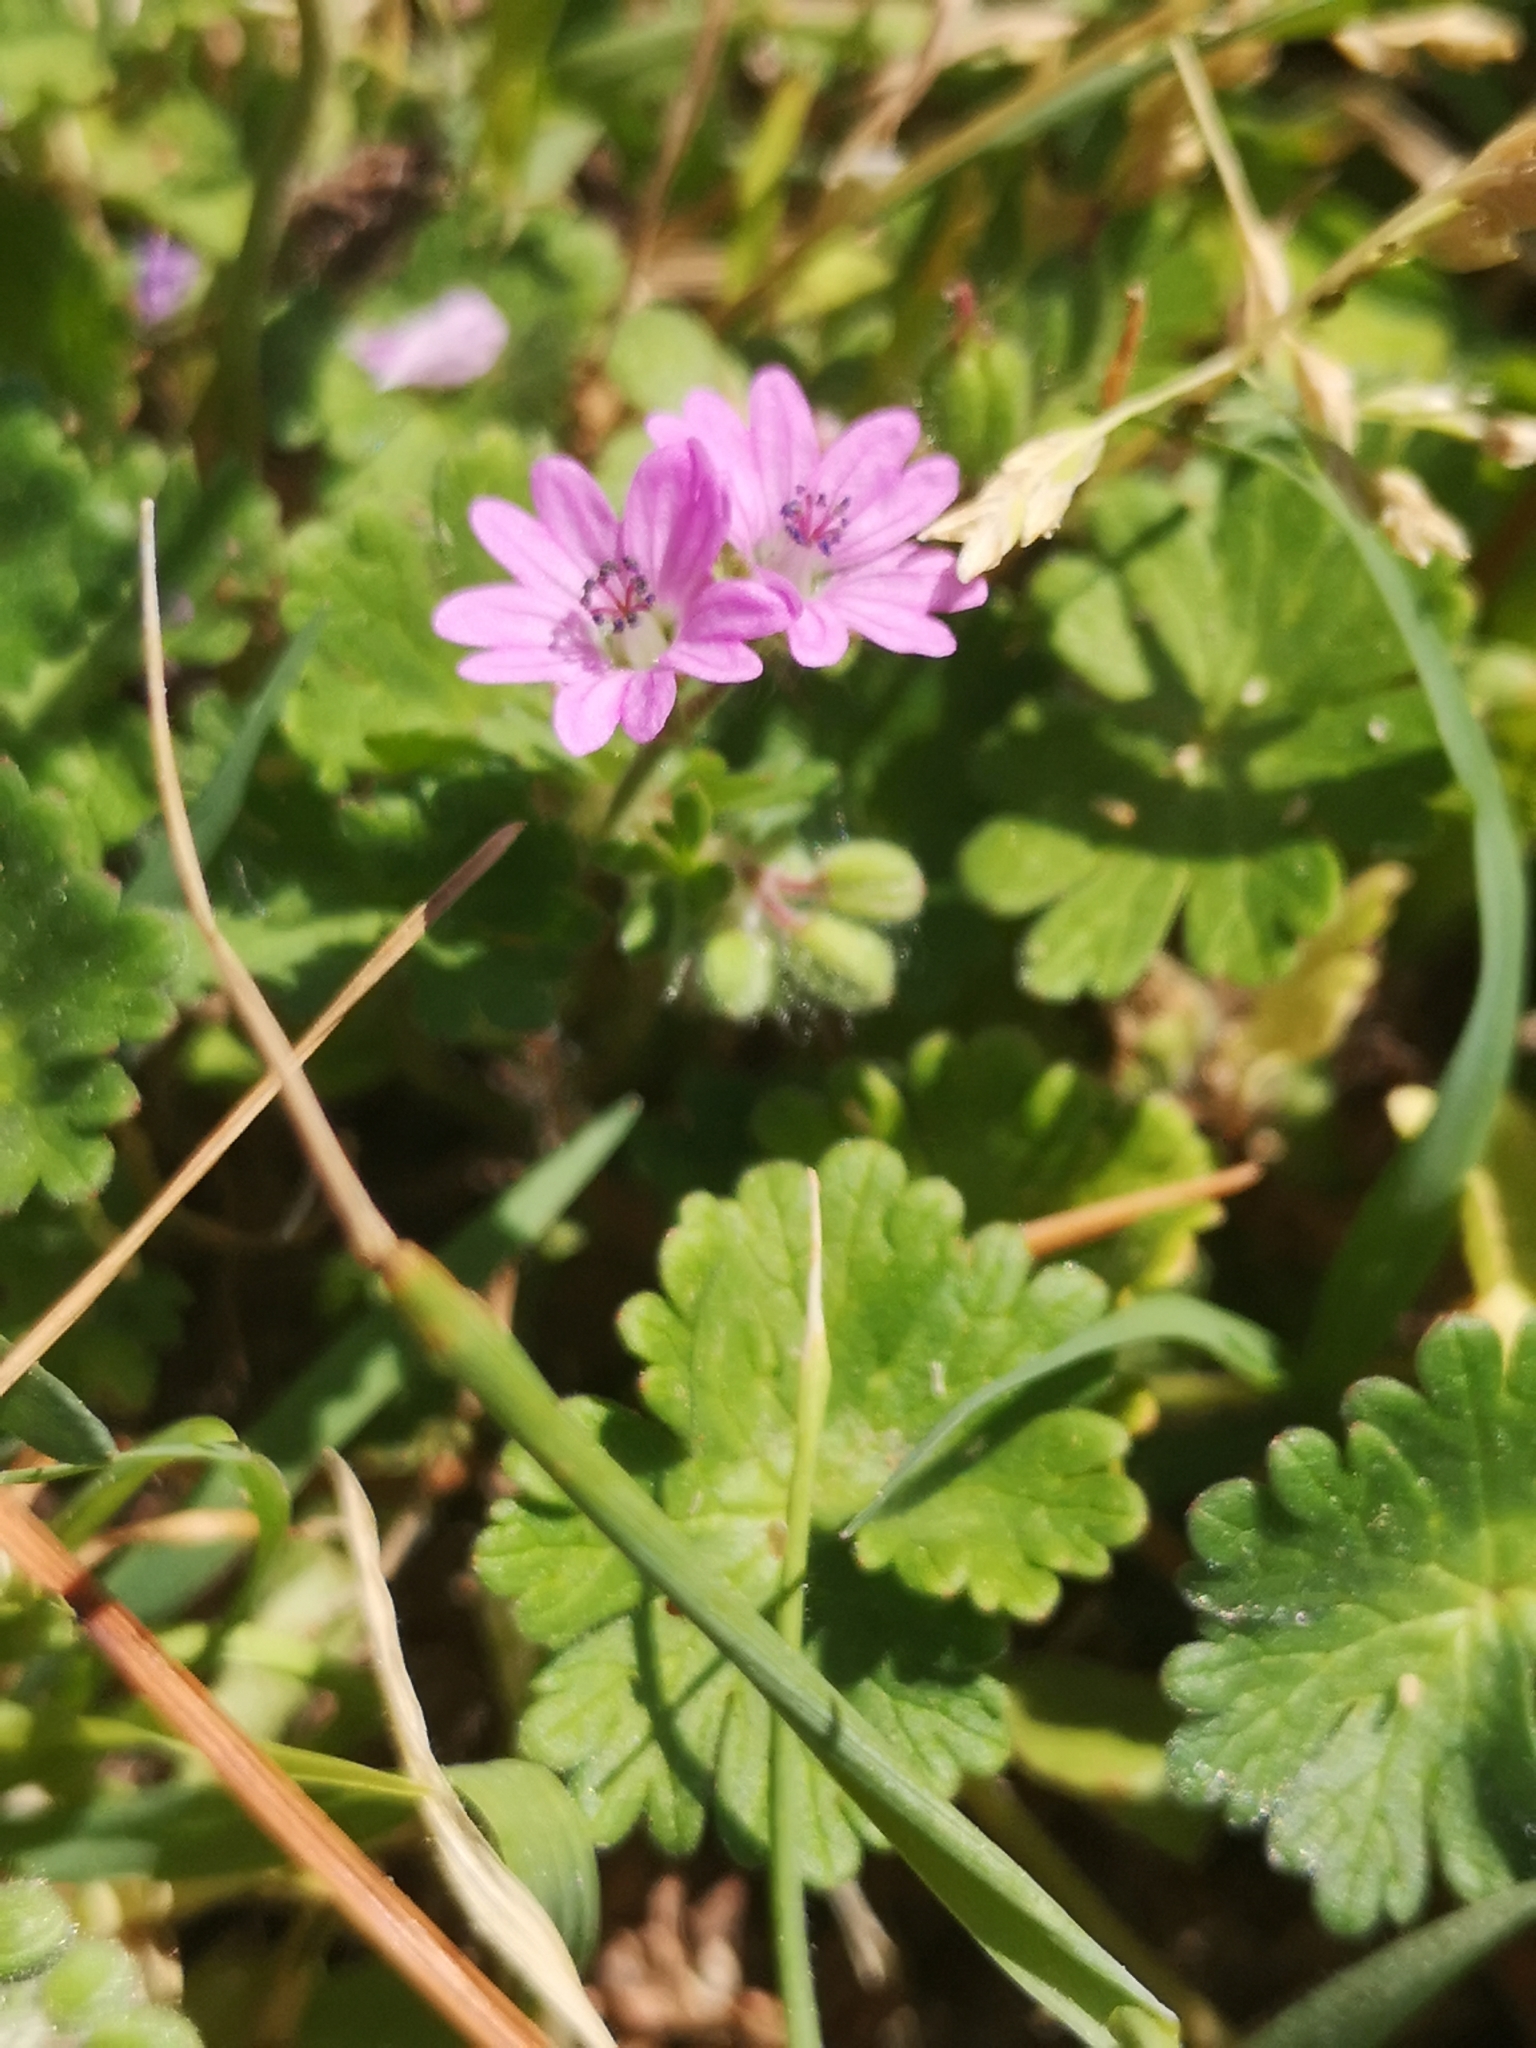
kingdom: Plantae
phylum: Tracheophyta
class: Magnoliopsida
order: Geraniales
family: Geraniaceae
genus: Geranium
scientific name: Geranium molle
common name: Dove's-foot crane's-bill
